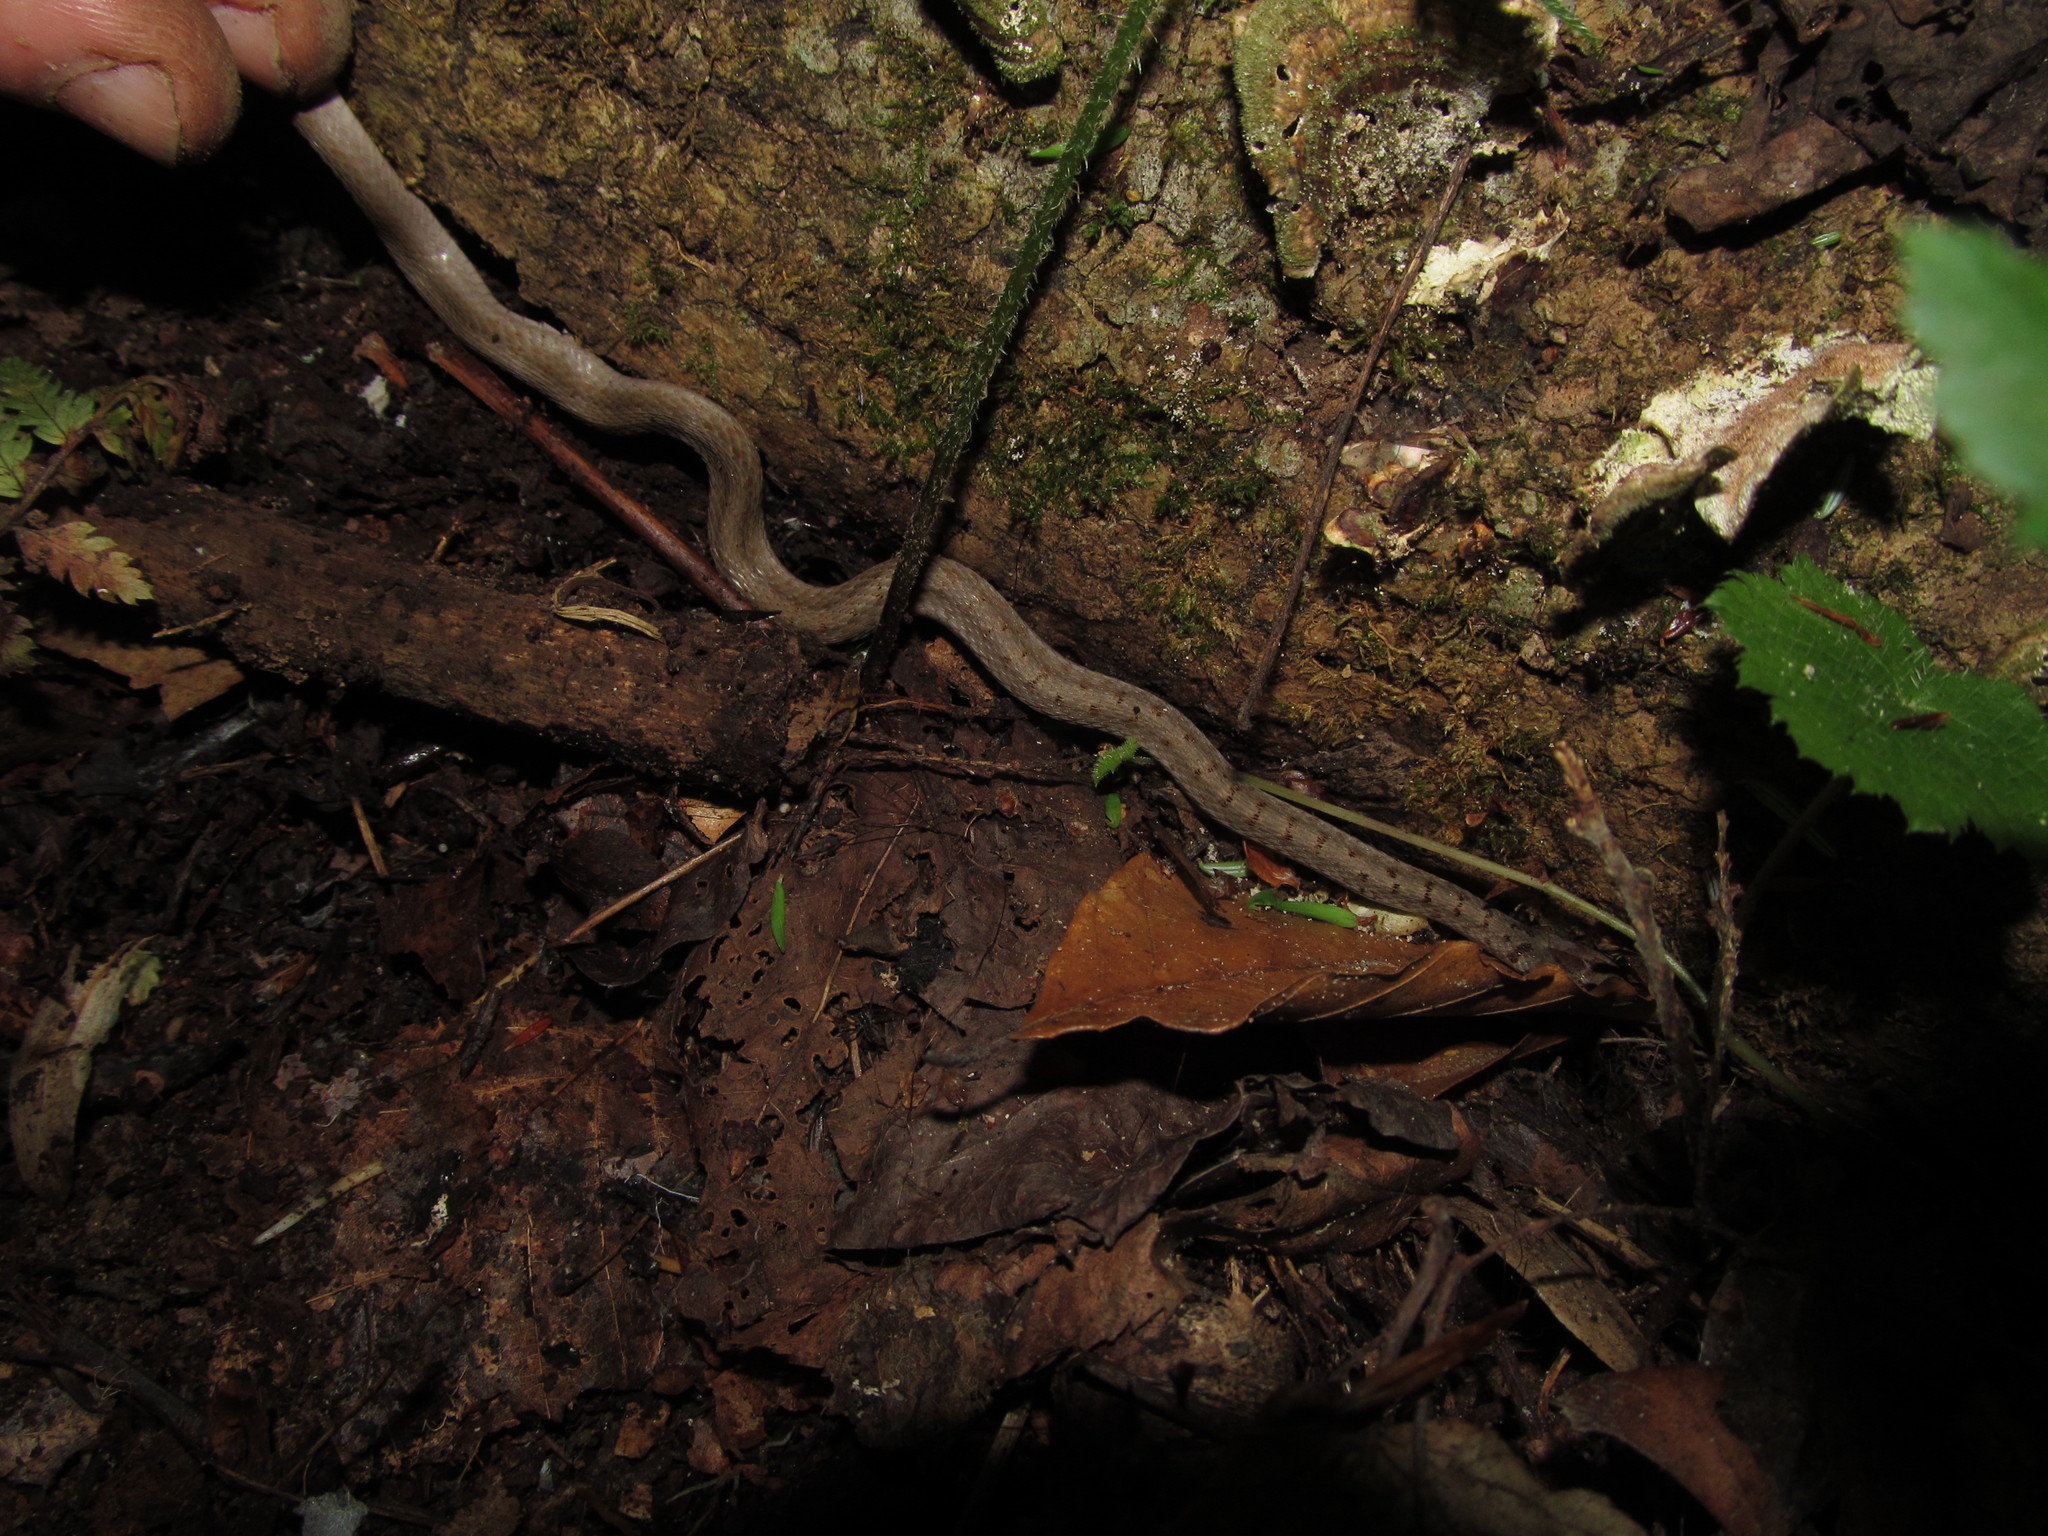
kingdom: Animalia
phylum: Chordata
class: Squamata
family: Colubridae
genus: Storeria
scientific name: Storeria dekayi
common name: (dekay’s) brown snake
